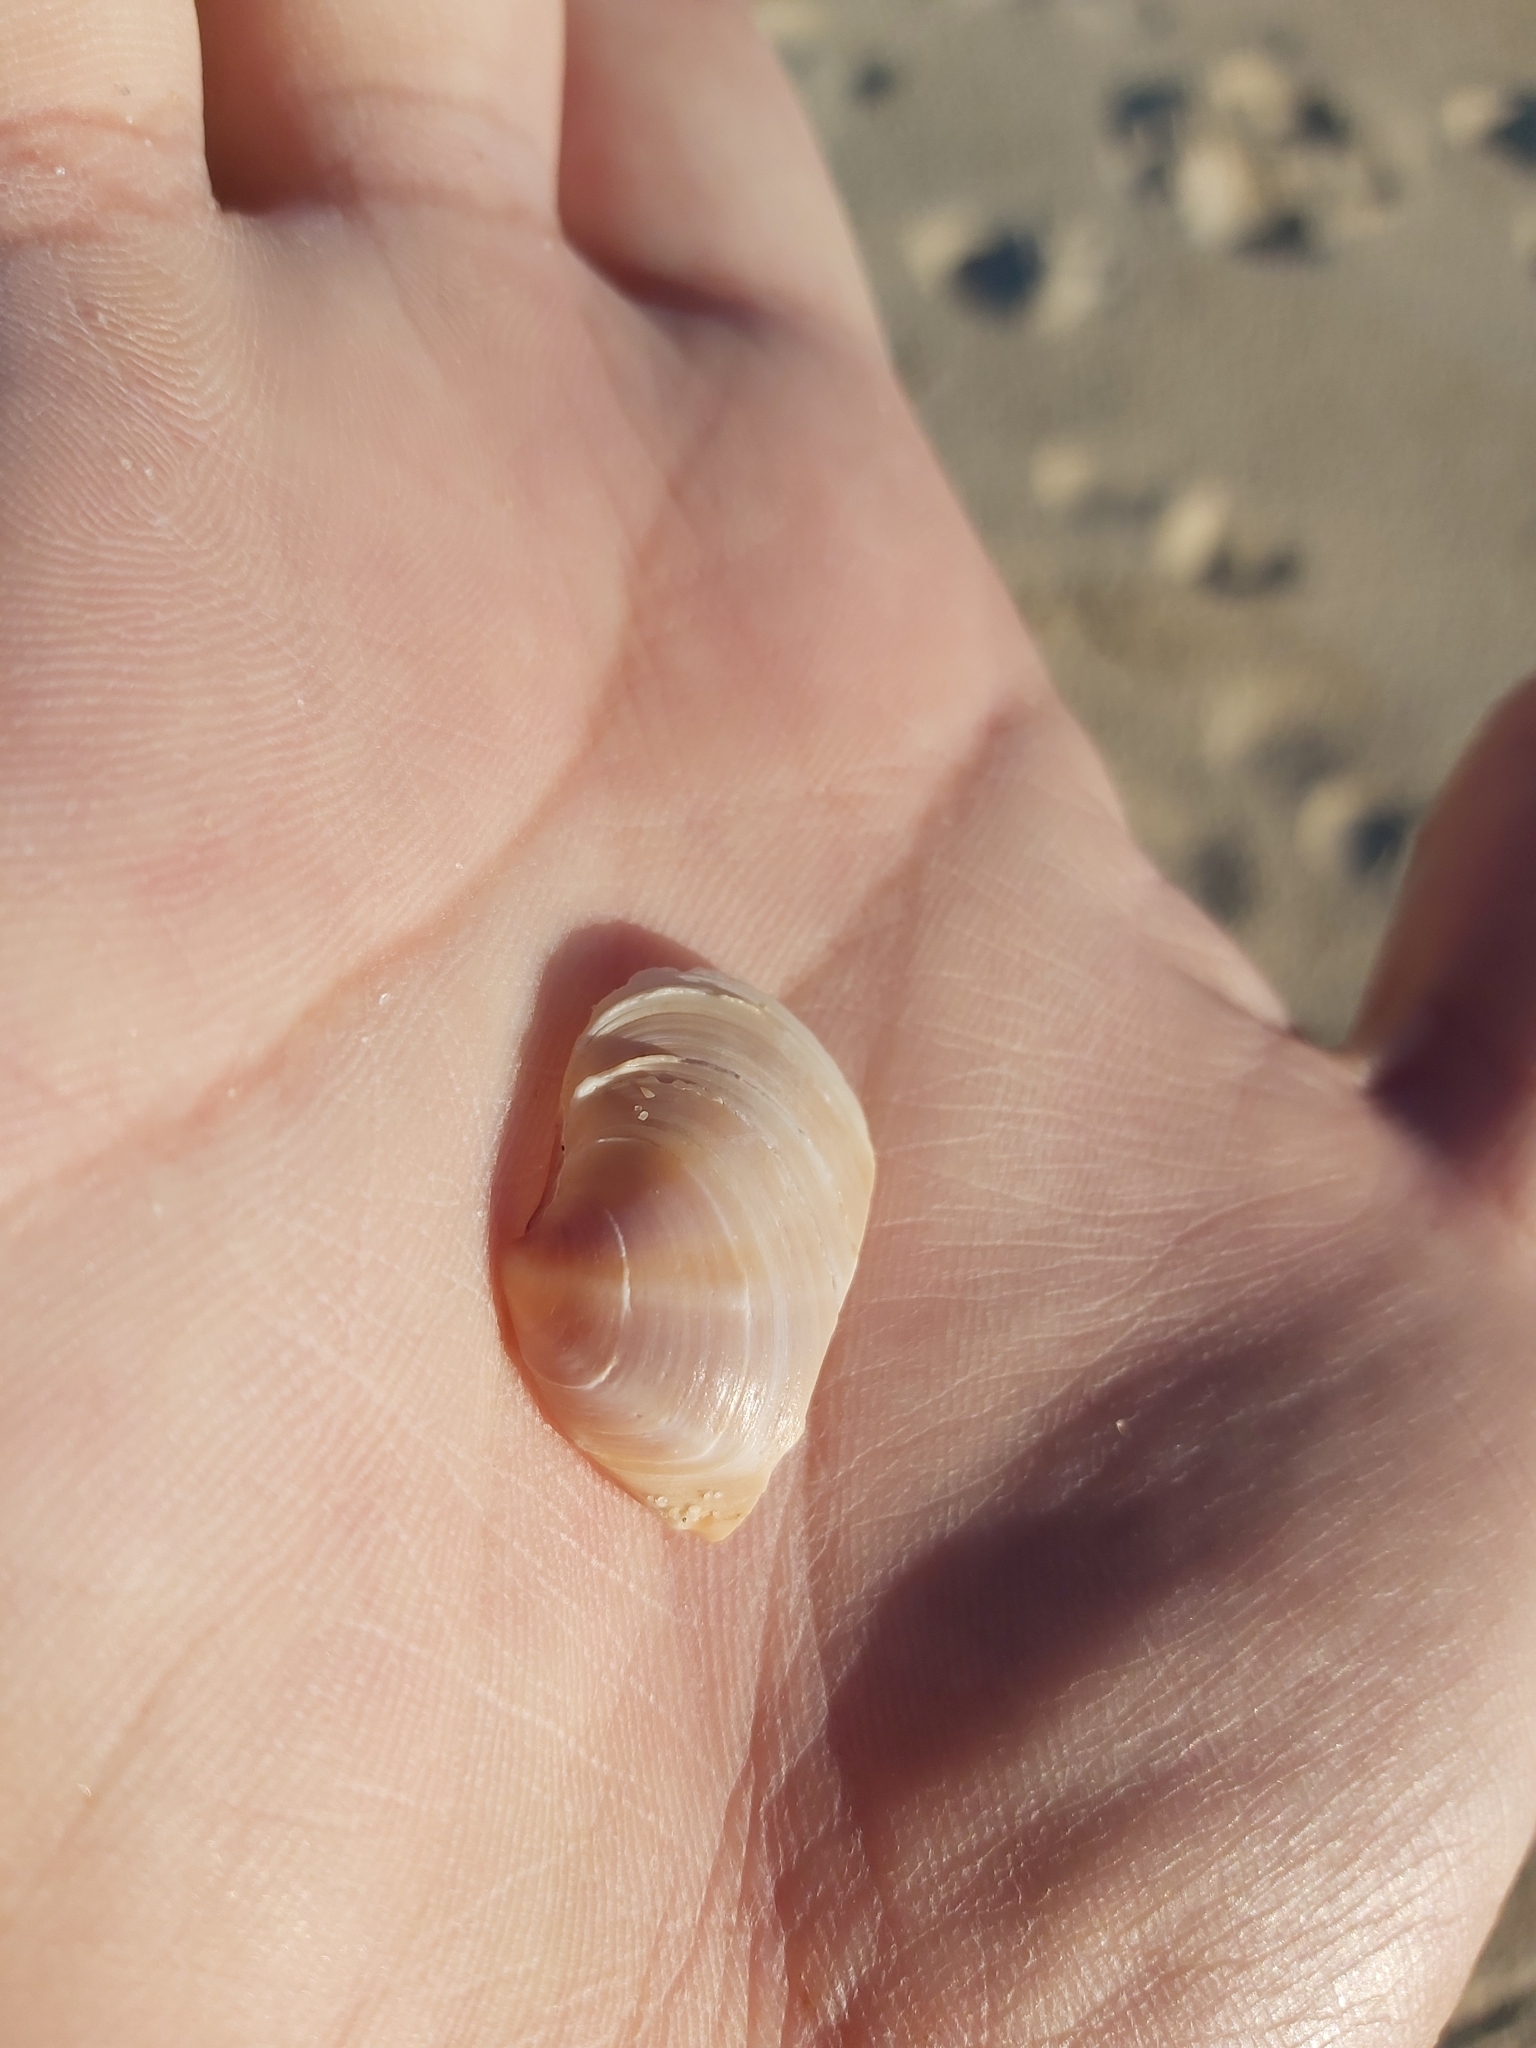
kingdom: Animalia
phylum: Mollusca
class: Bivalvia
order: Venerida
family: Veneridae
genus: Bassina
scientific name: Bassina jacksonii
